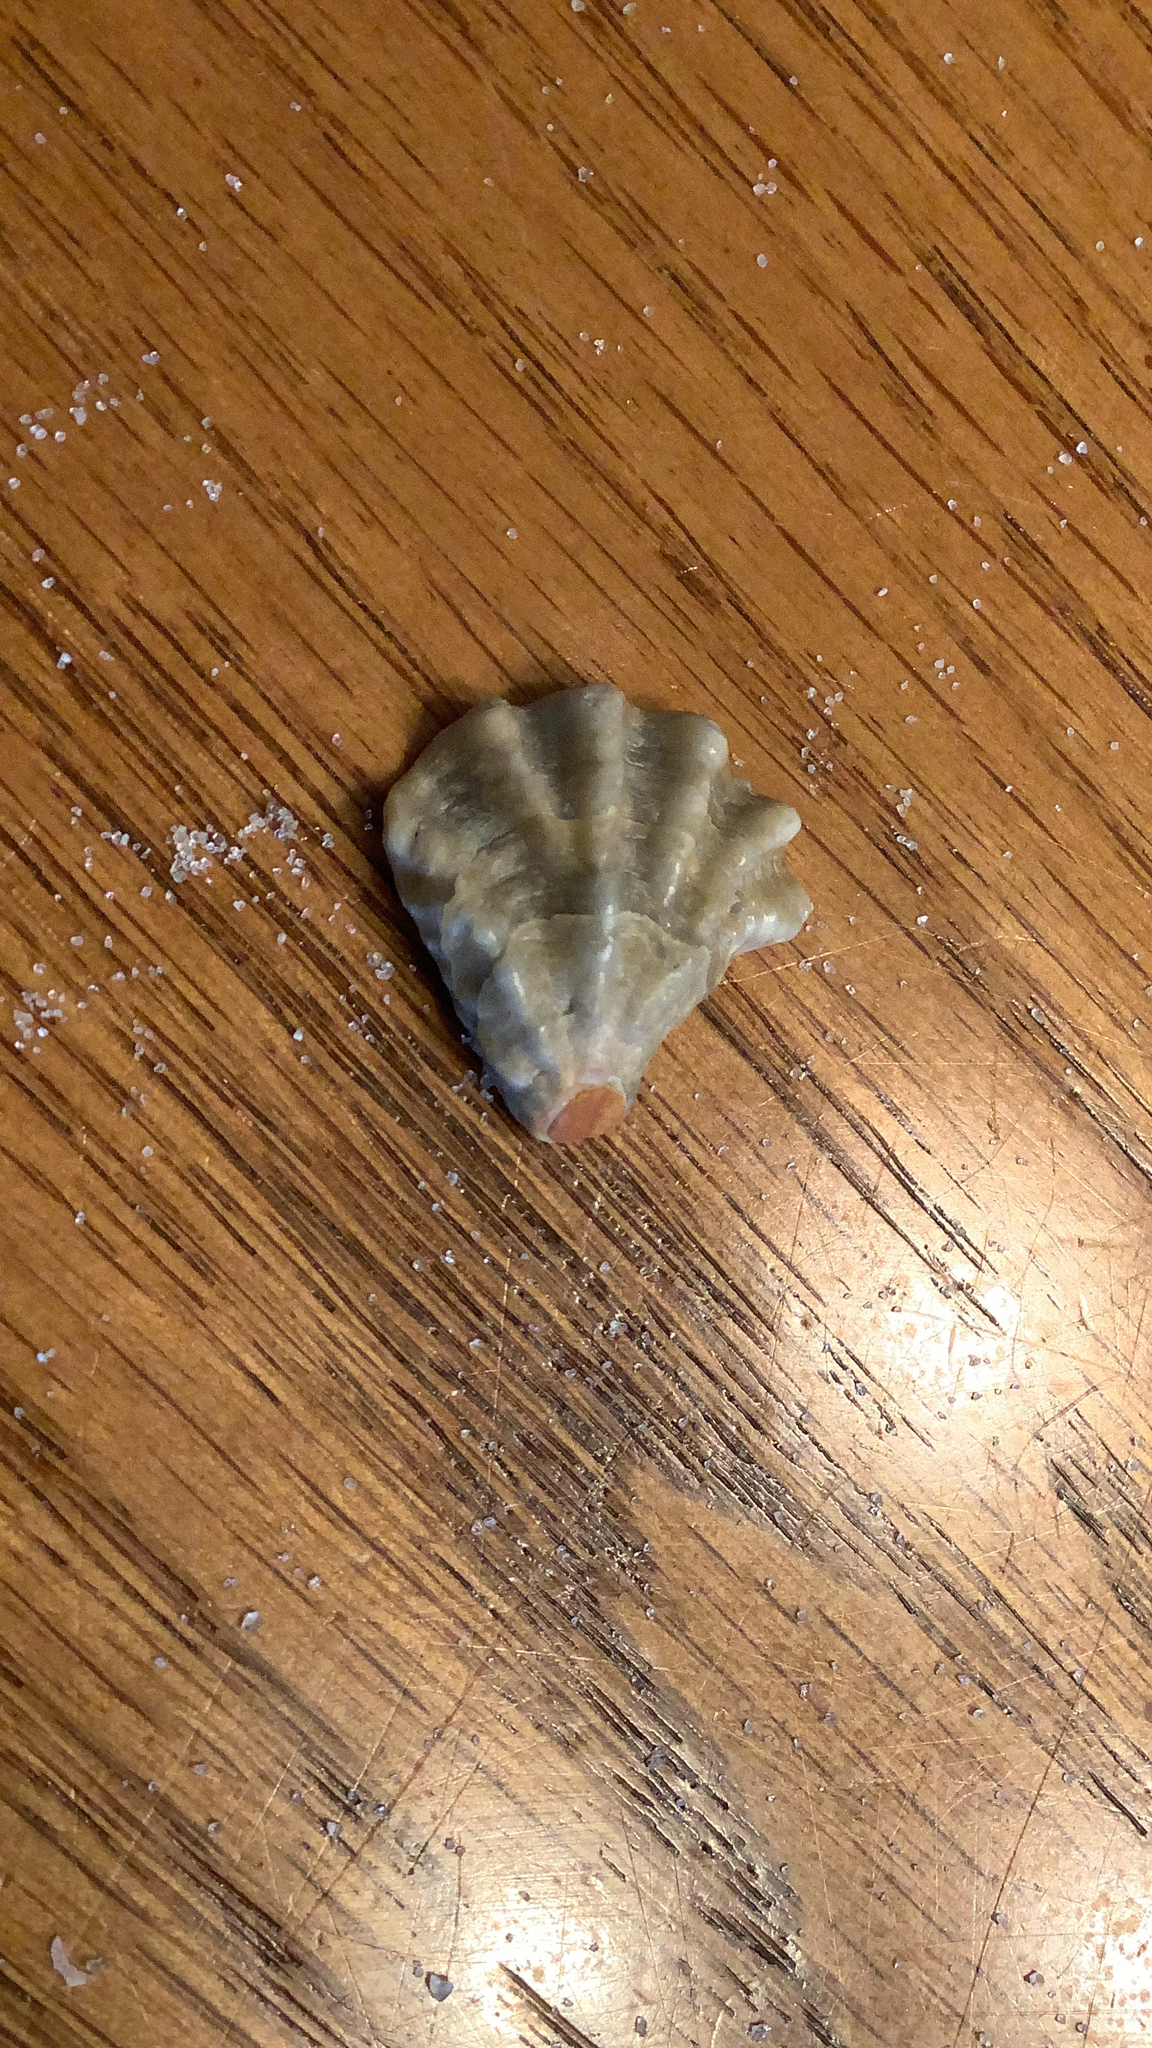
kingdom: Animalia
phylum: Mollusca
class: Bivalvia
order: Pectinida
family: Plicatulidae
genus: Plicatula
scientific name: Plicatula gibbosa
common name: Atlantic kitten's paw
